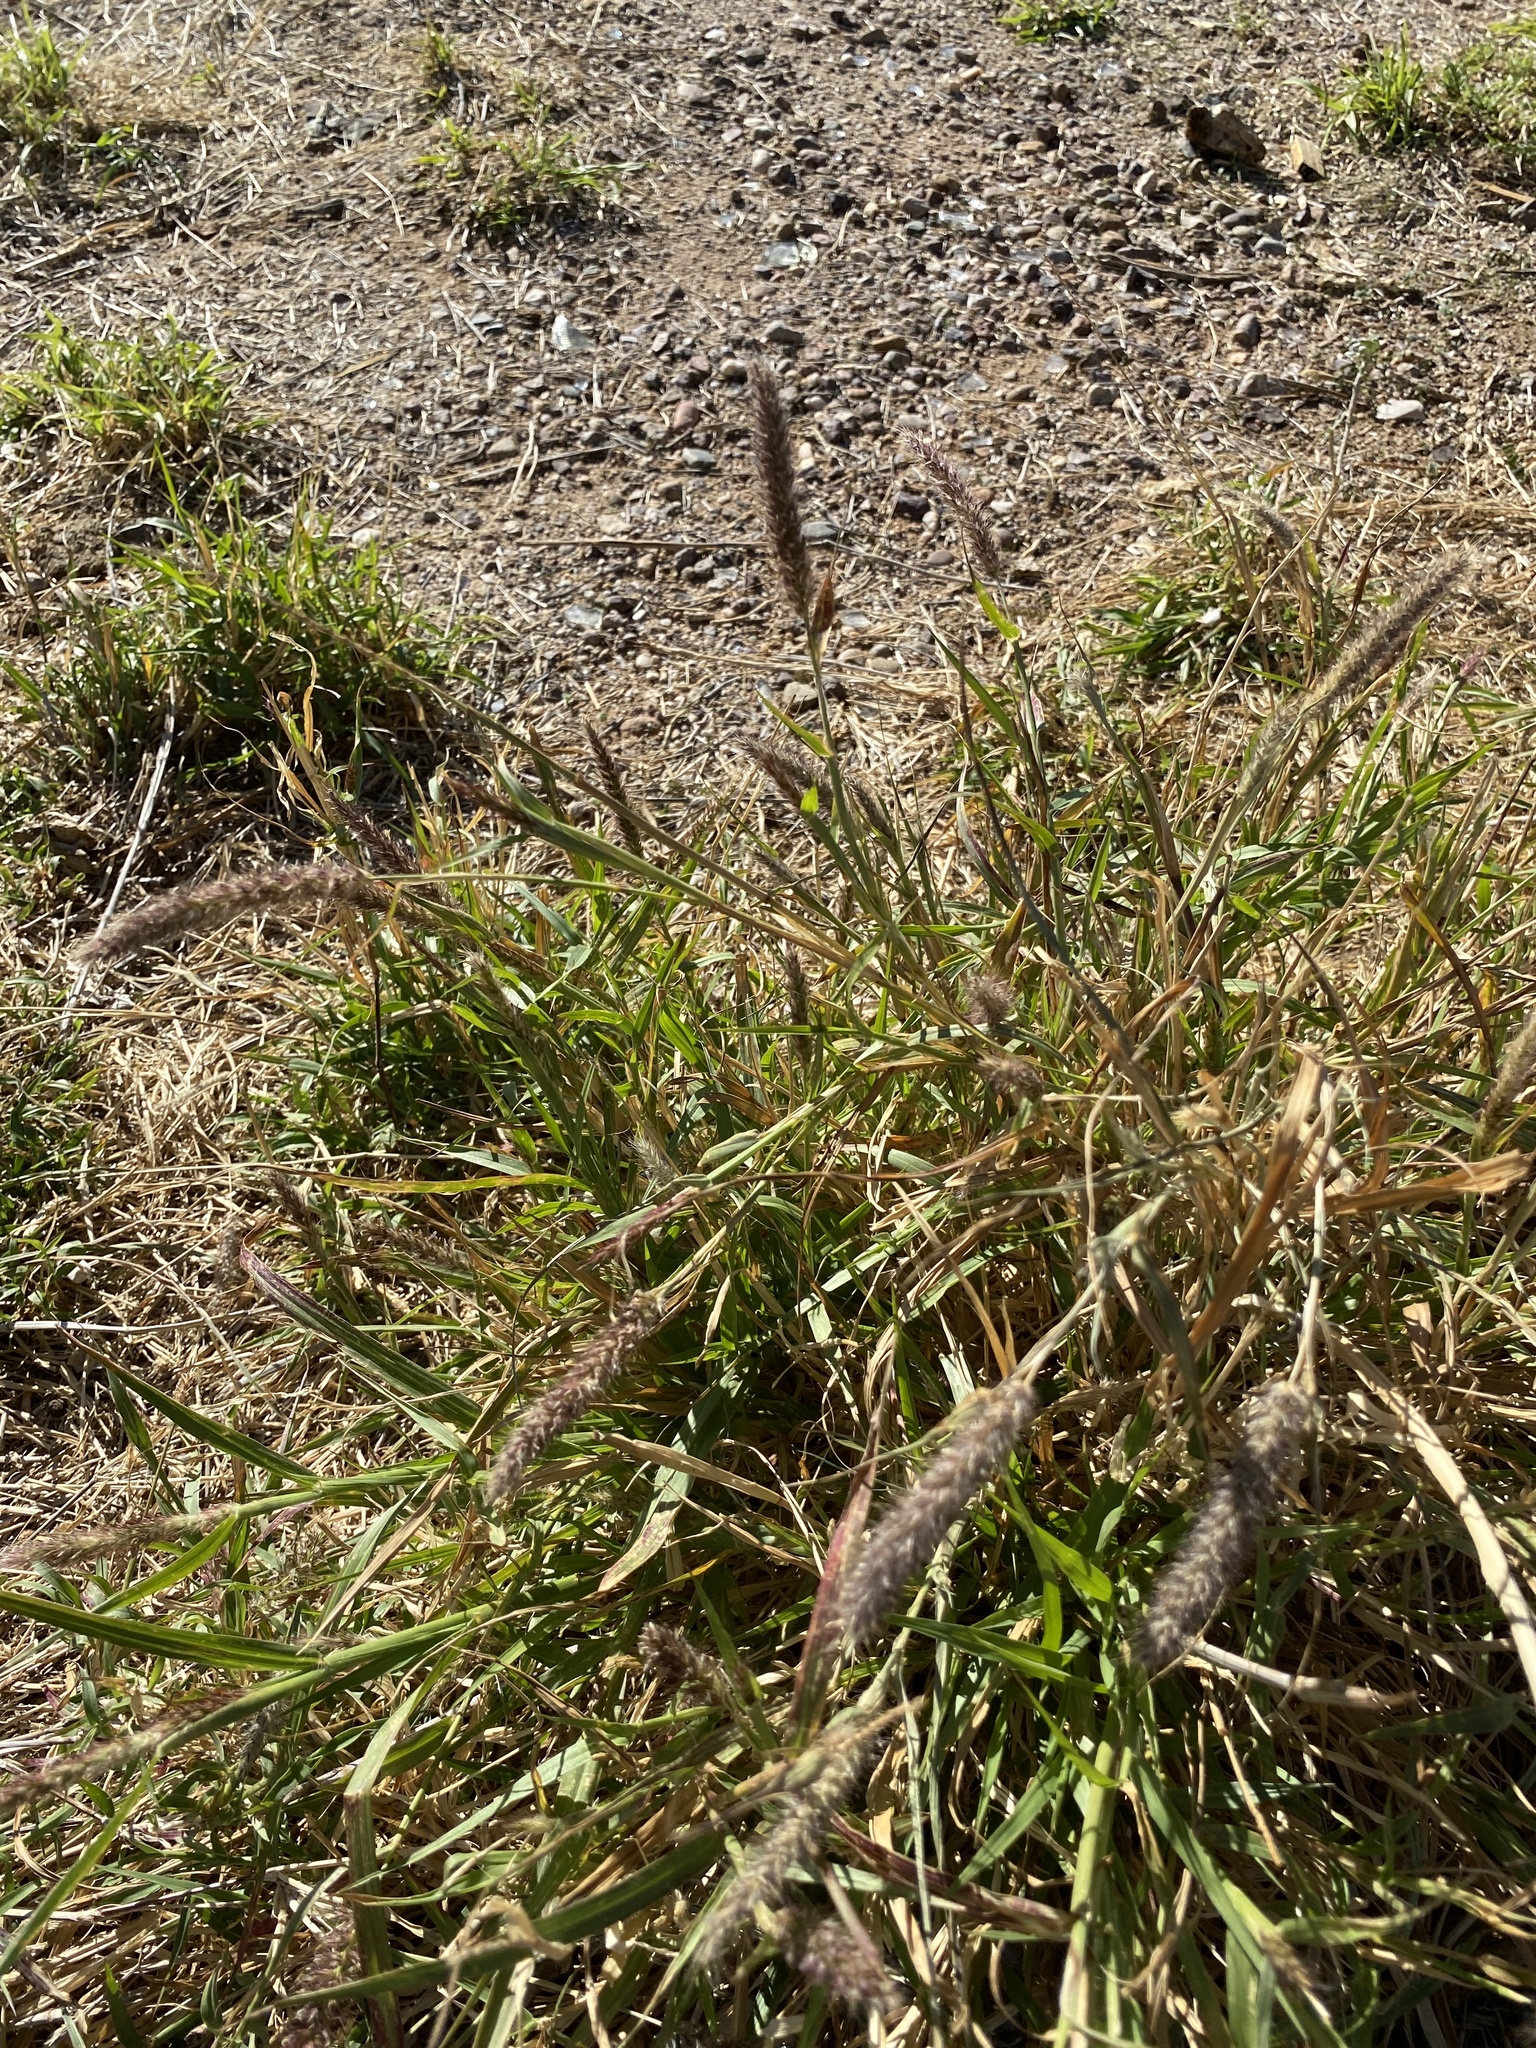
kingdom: Plantae
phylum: Tracheophyta
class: Liliopsida
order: Poales
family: Poaceae
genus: Cenchrus
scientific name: Cenchrus ciliaris
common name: Buffelgrass
